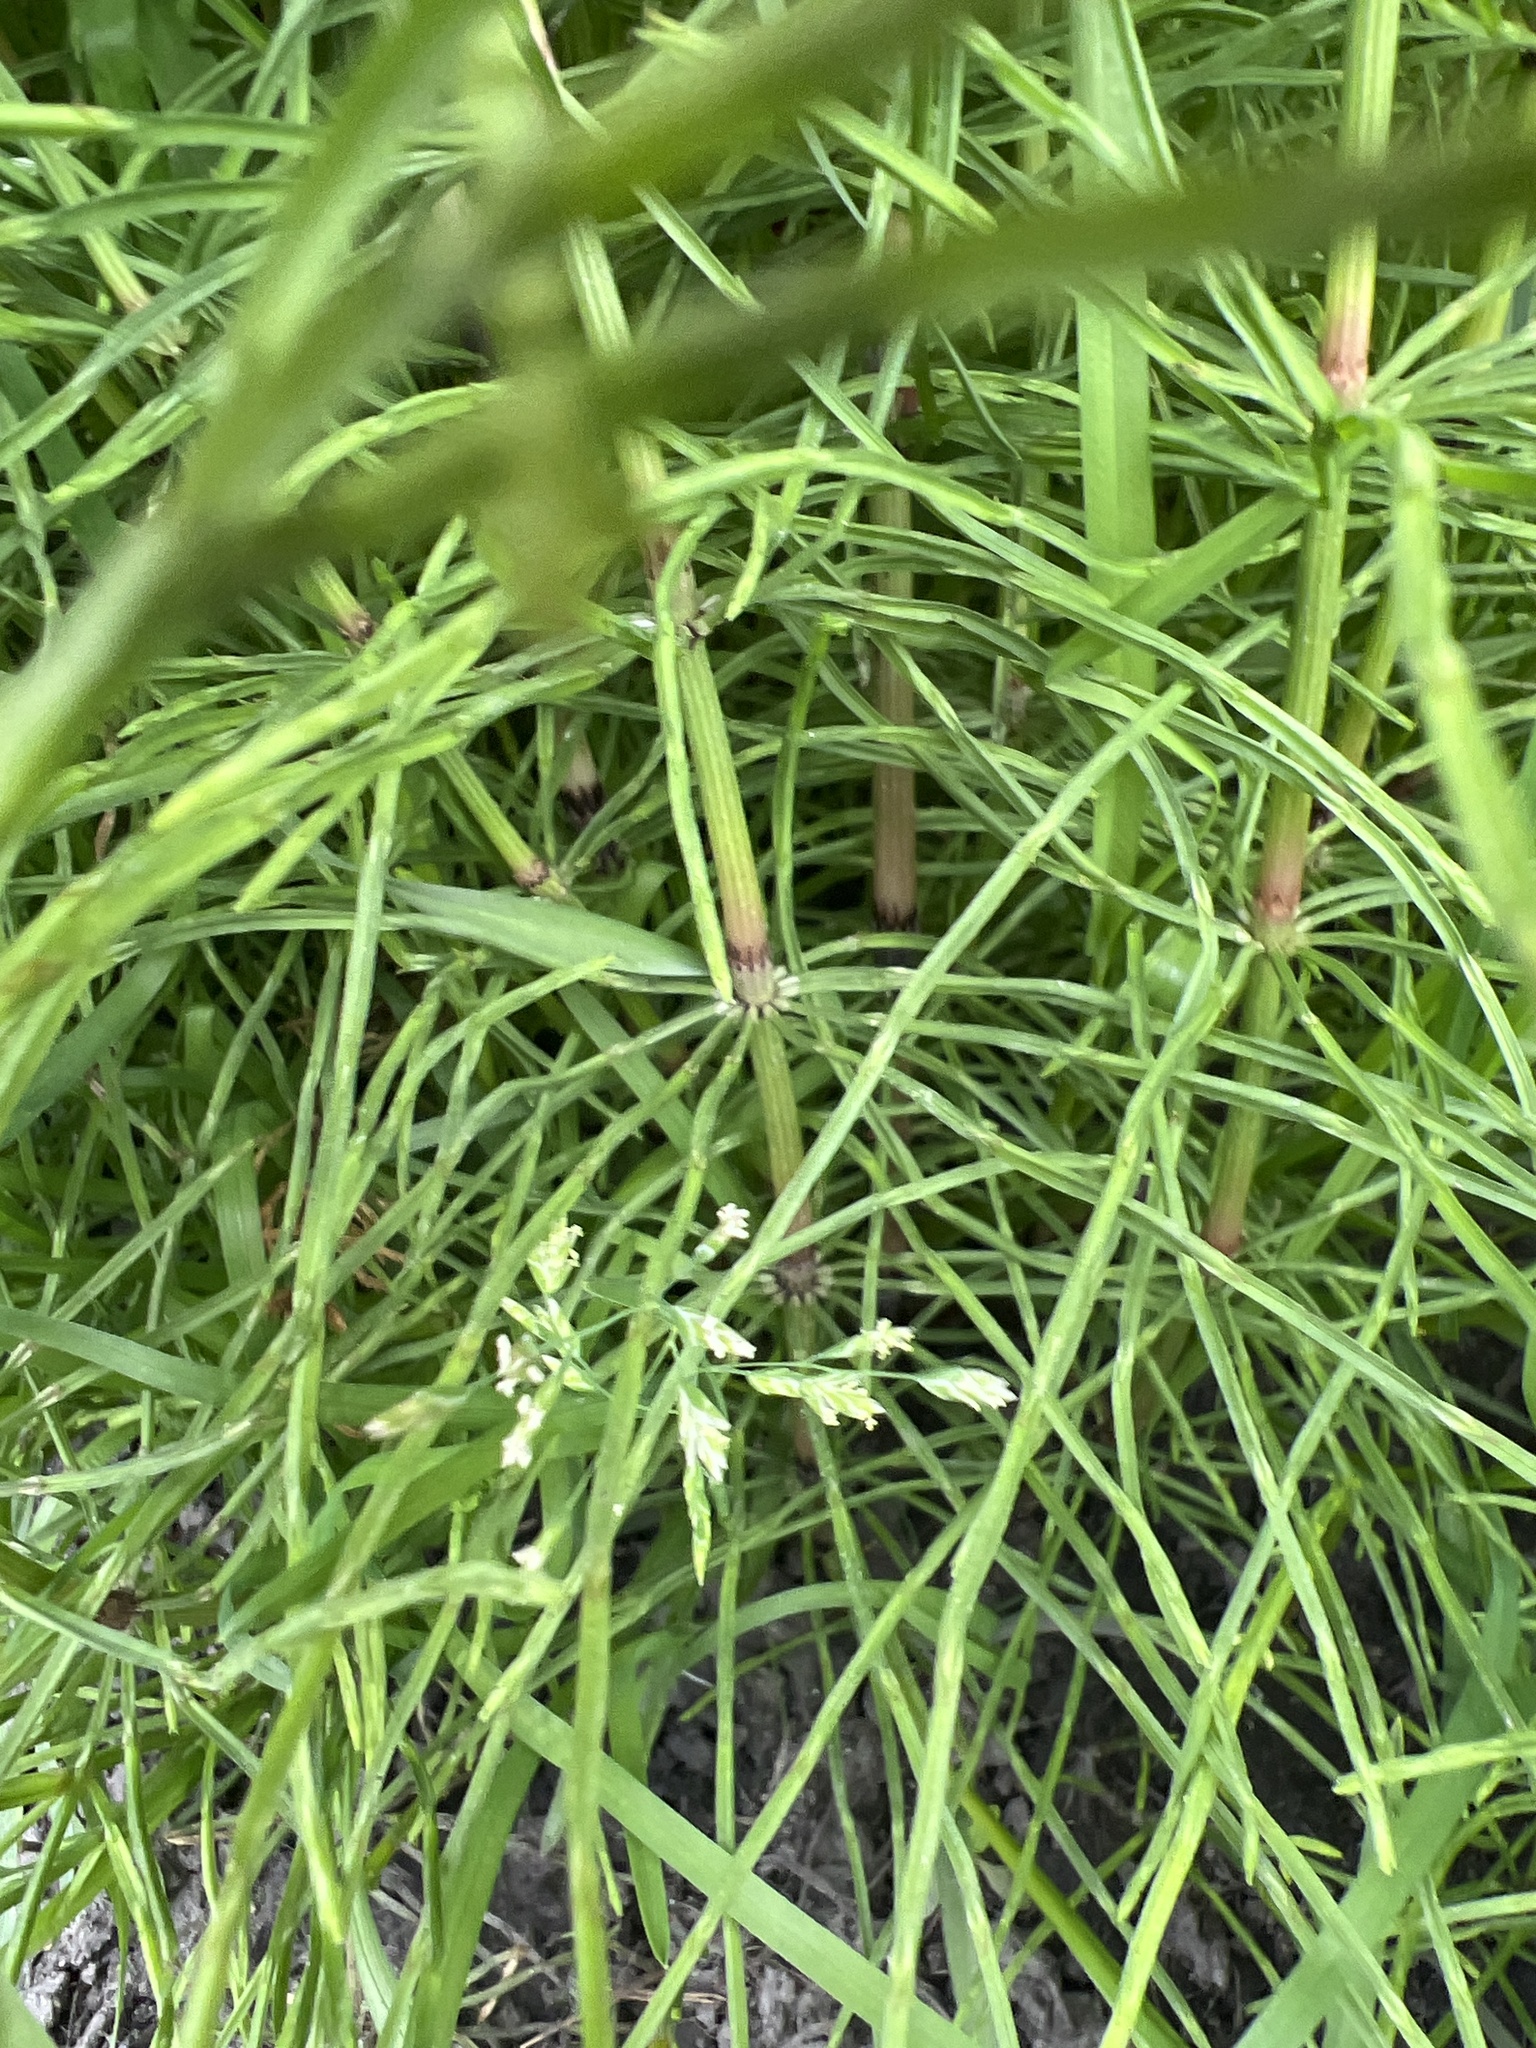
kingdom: Plantae
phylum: Tracheophyta
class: Polypodiopsida
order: Equisetales
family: Equisetaceae
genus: Equisetum
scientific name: Equisetum arvense
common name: Field horsetail
